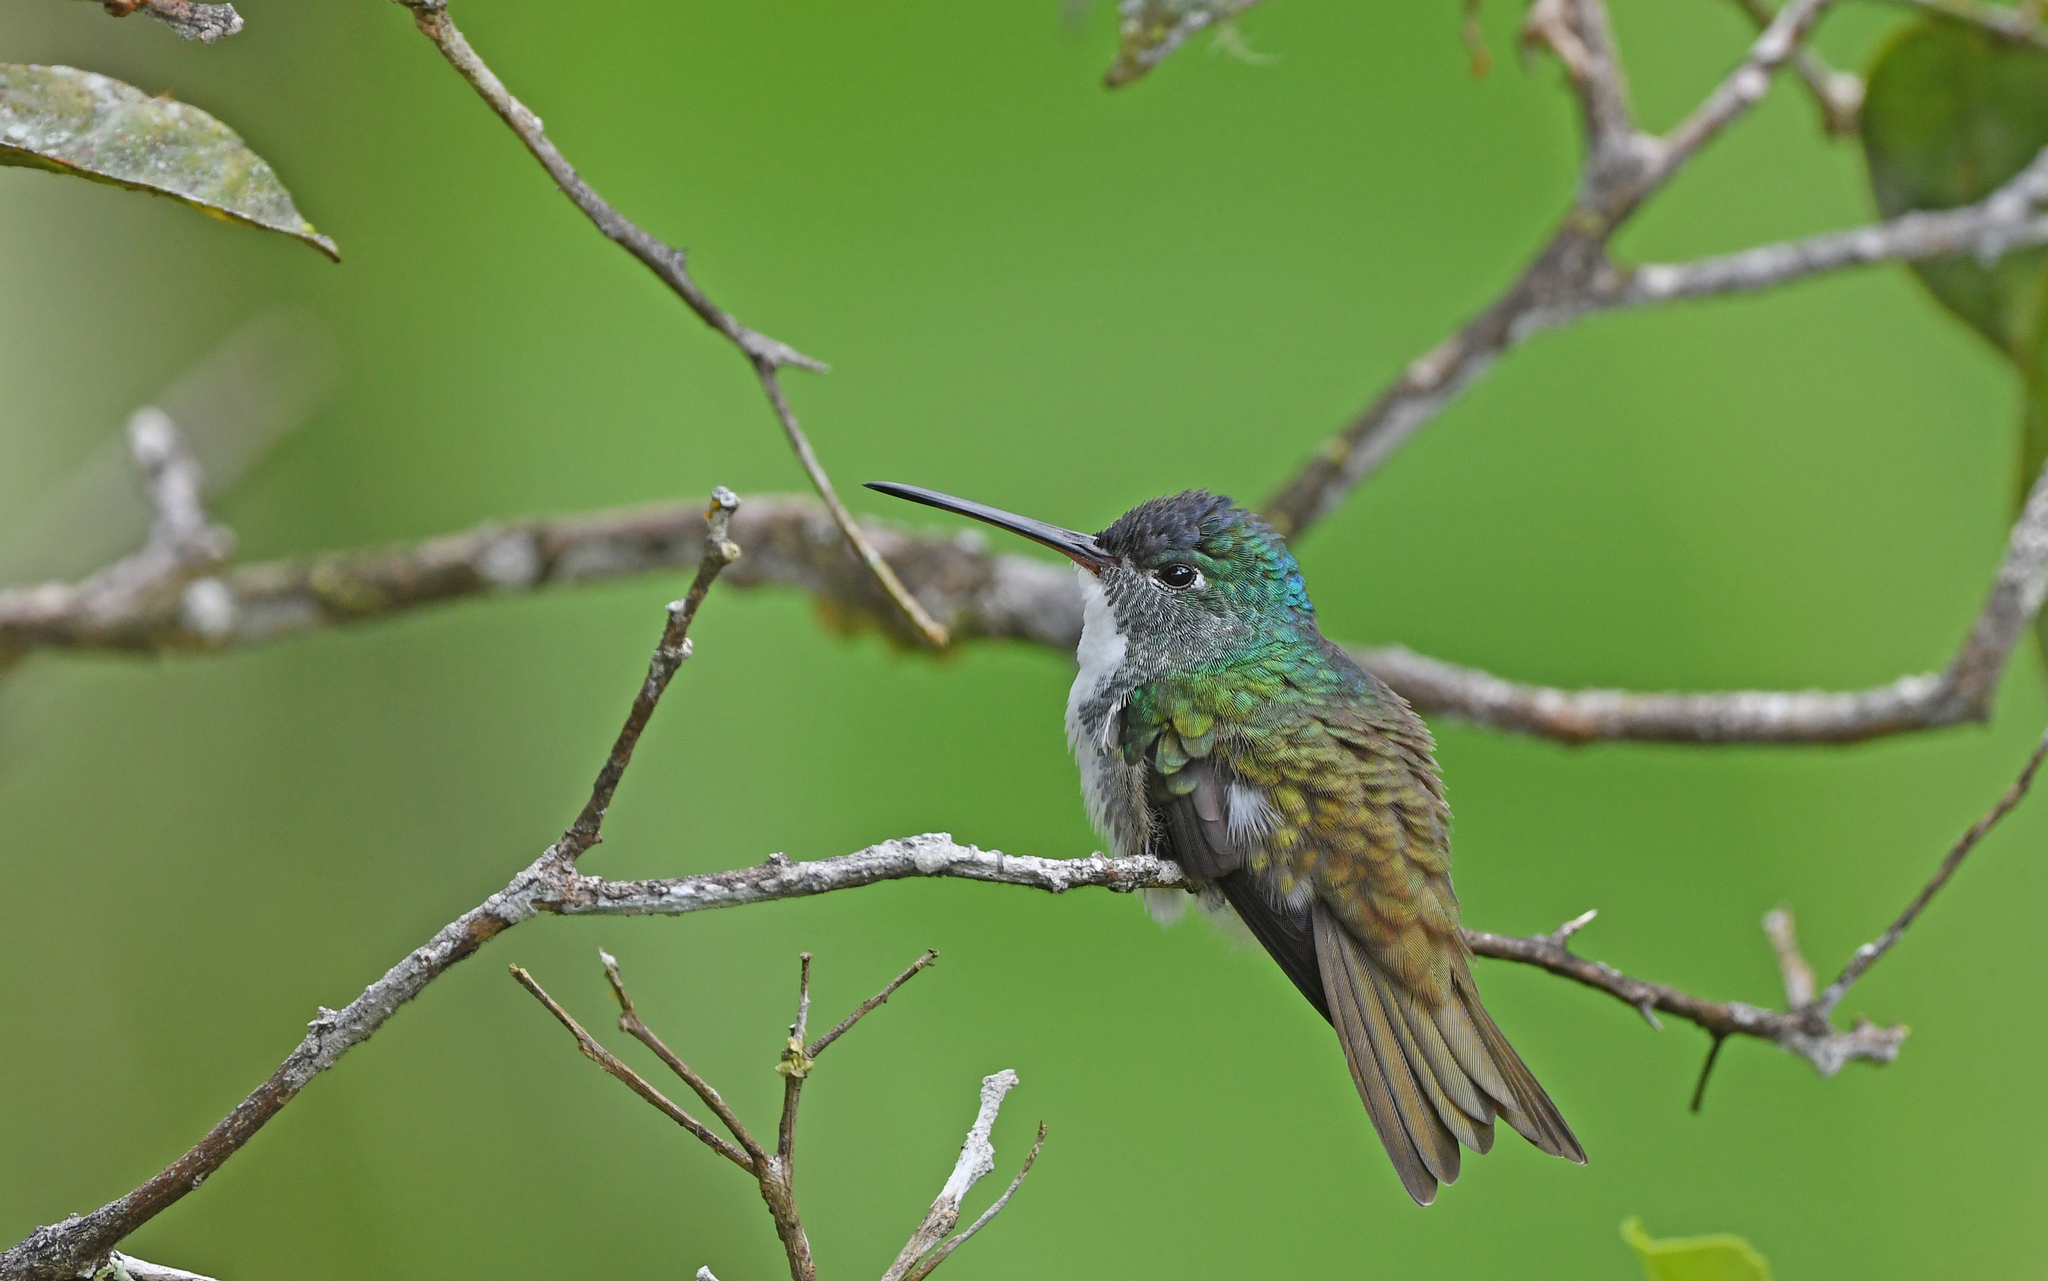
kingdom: Animalia
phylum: Chordata
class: Aves
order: Apodiformes
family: Trochilidae
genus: Uranomitra
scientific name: Uranomitra franciae
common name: Andean emerald
